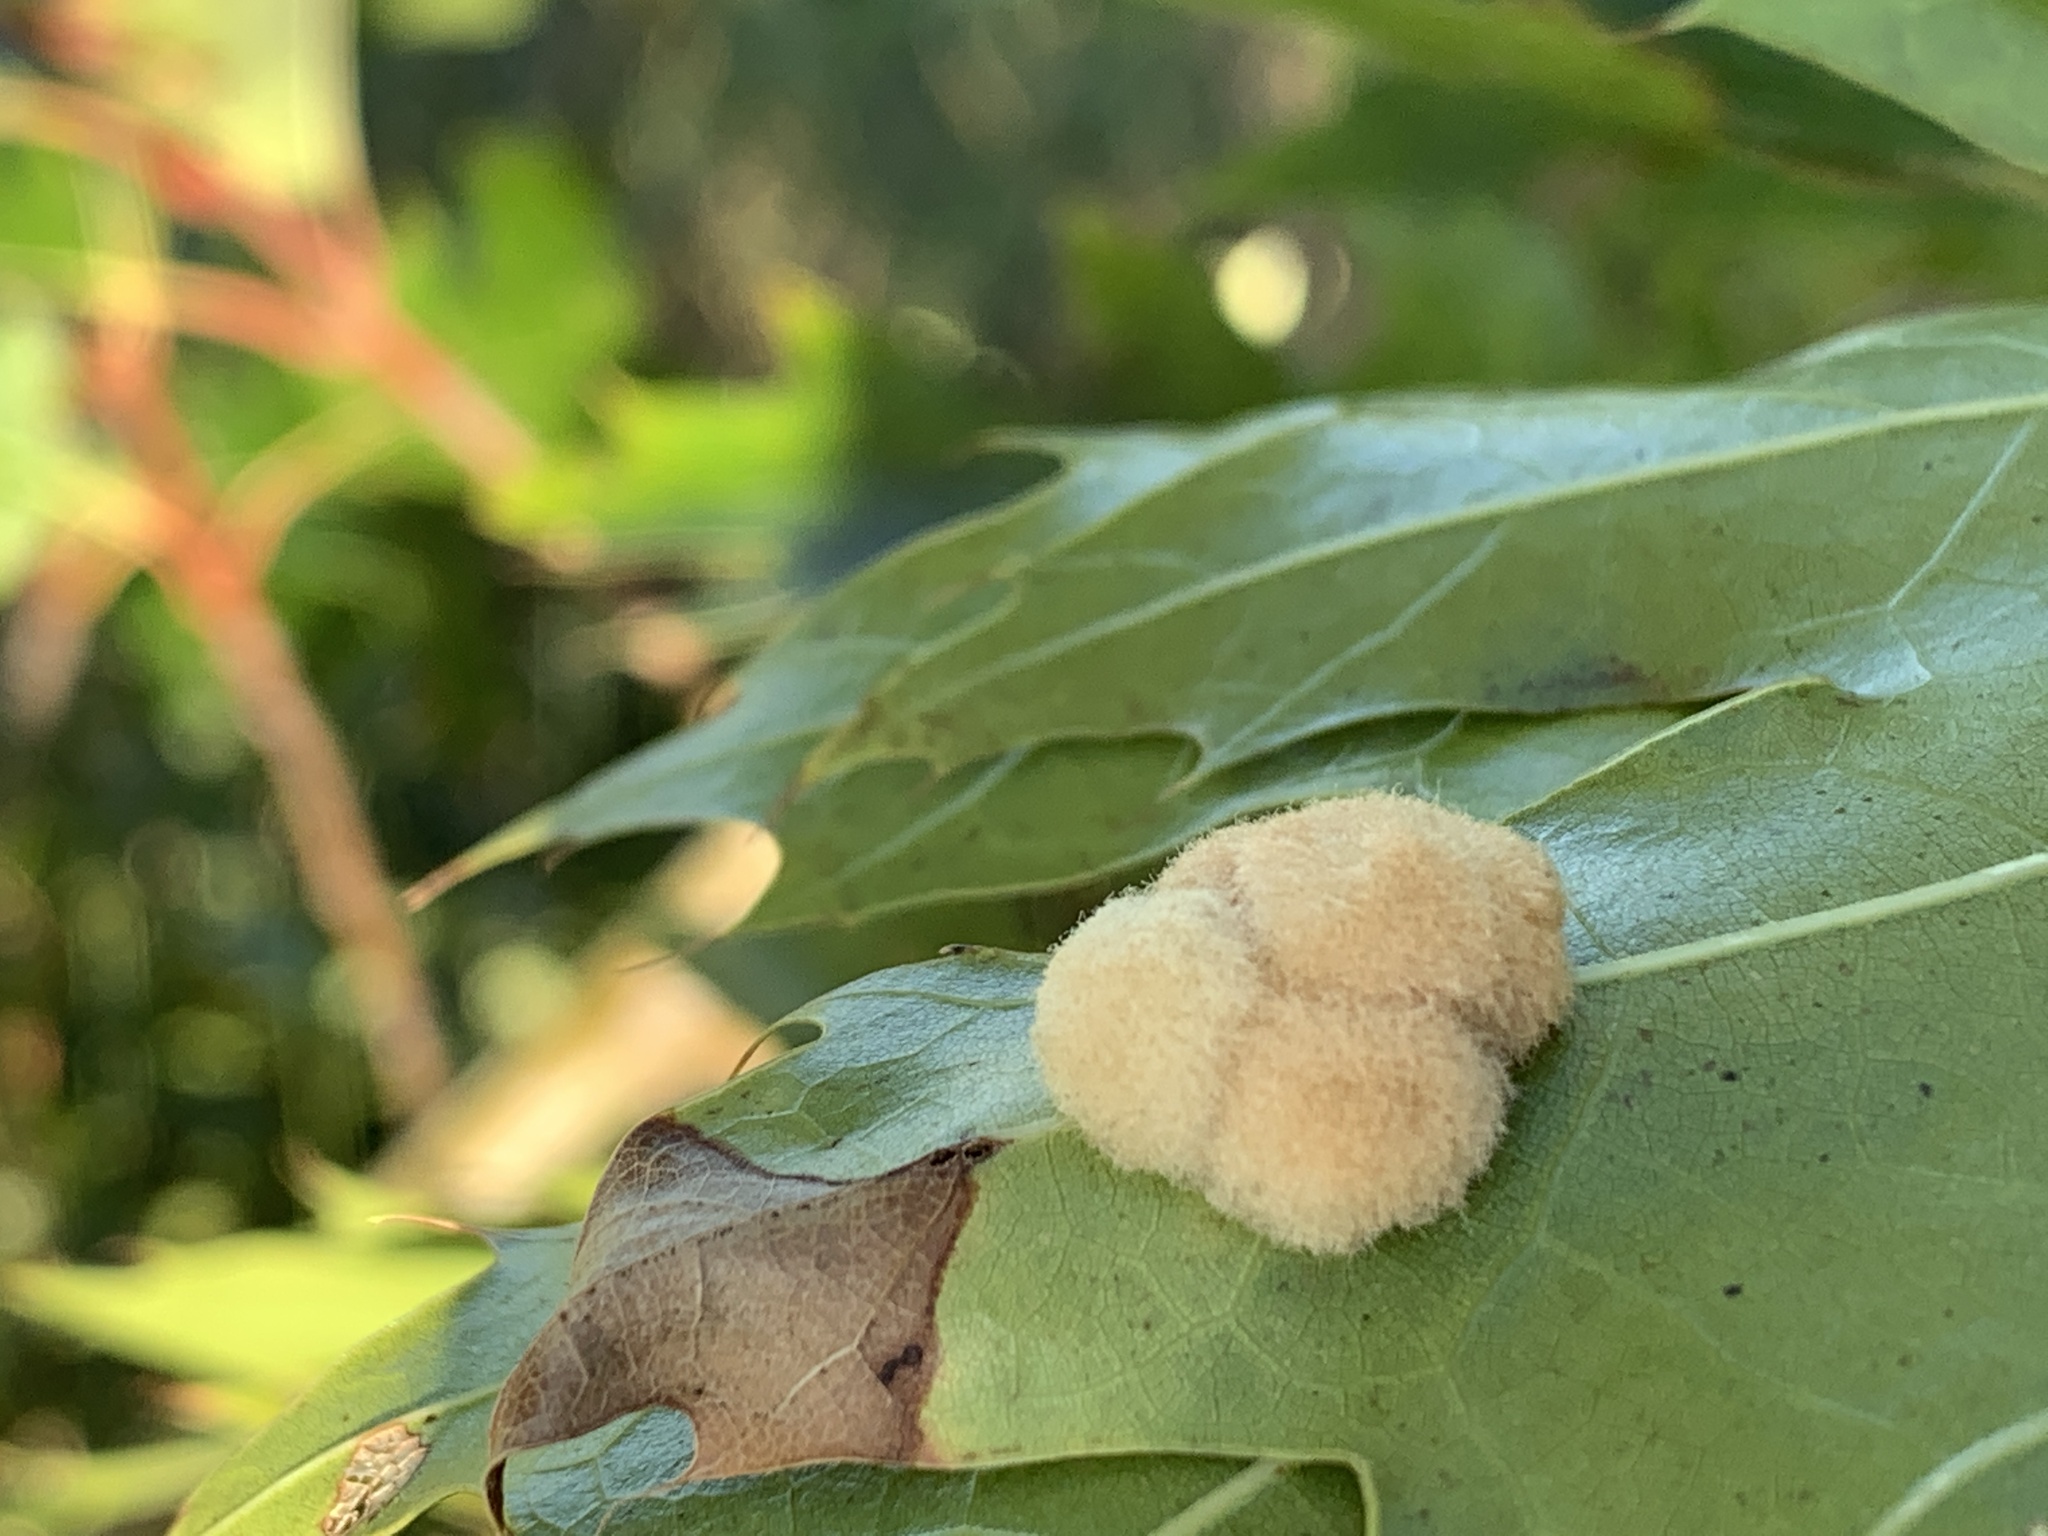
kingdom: Animalia
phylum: Arthropoda
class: Insecta
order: Hymenoptera
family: Cynipidae
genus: Callirhytis
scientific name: Callirhytis
